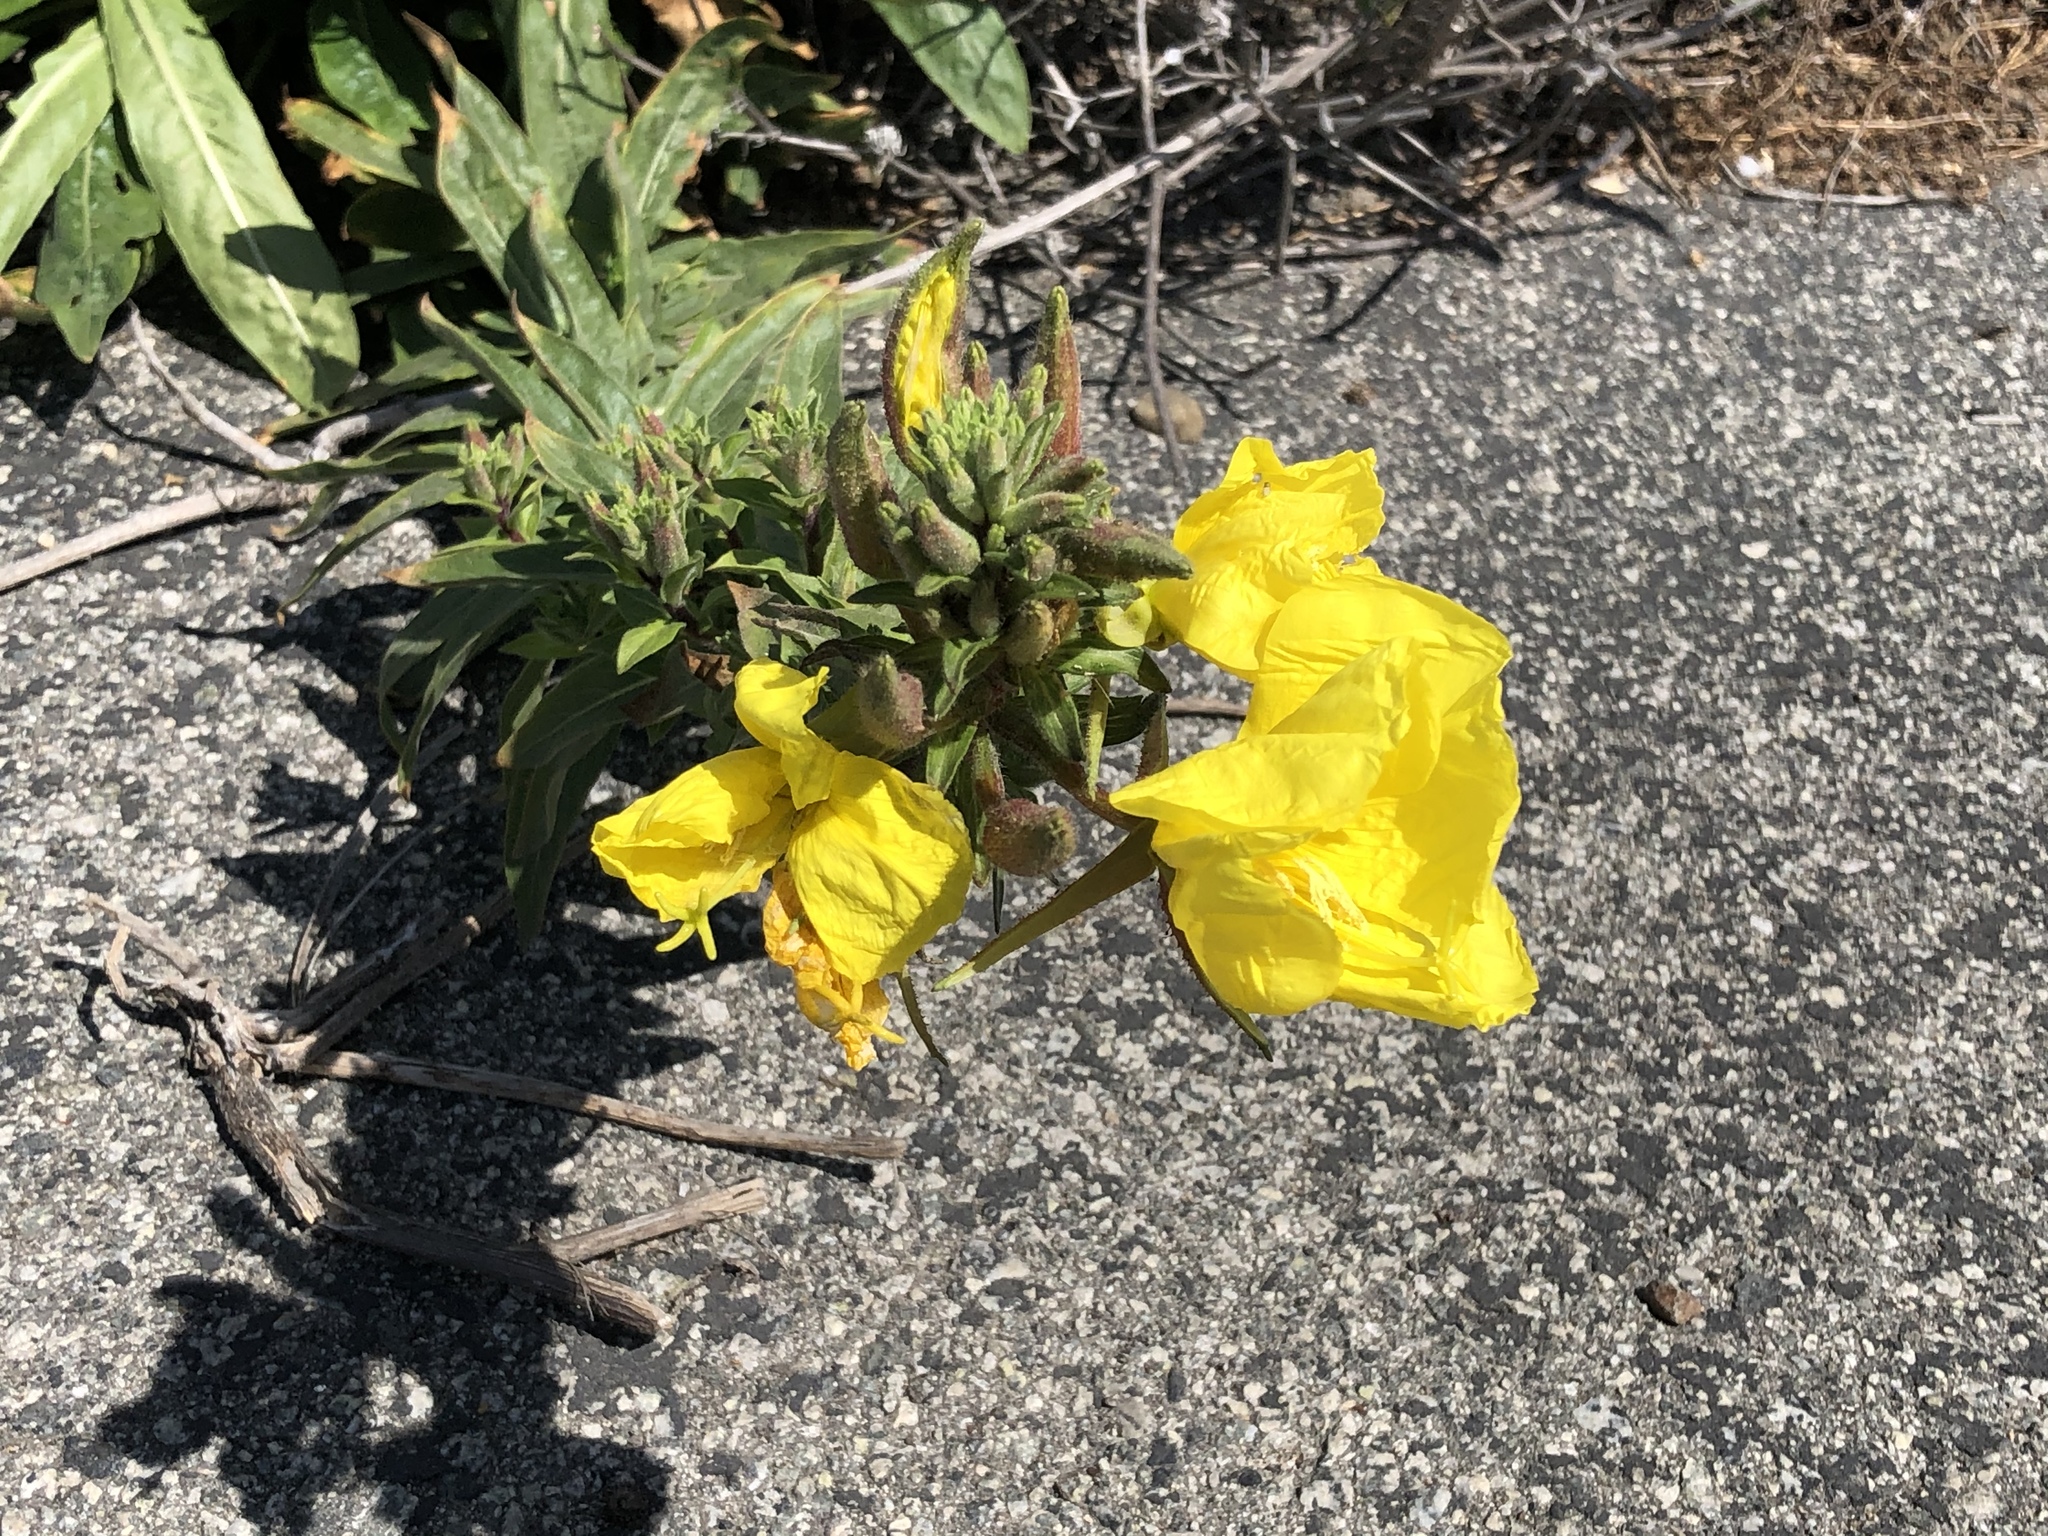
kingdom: Plantae
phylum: Tracheophyta
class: Magnoliopsida
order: Myrtales
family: Onagraceae
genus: Oenothera
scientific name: Oenothera elata
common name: Hooker's evening-primrose
